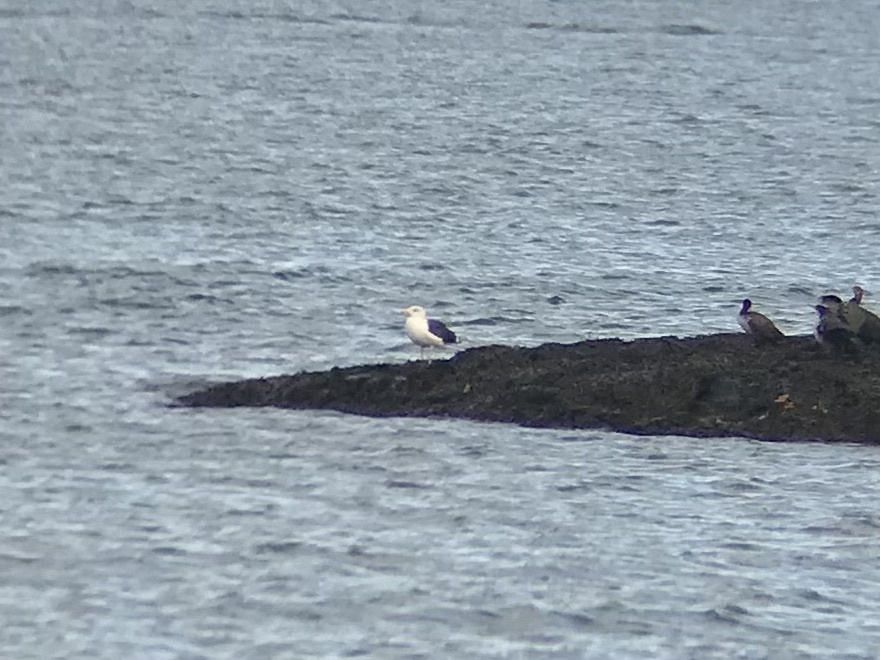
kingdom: Animalia
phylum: Chordata
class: Aves
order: Charadriiformes
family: Laridae
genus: Larus
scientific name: Larus marinus
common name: Great black-backed gull
